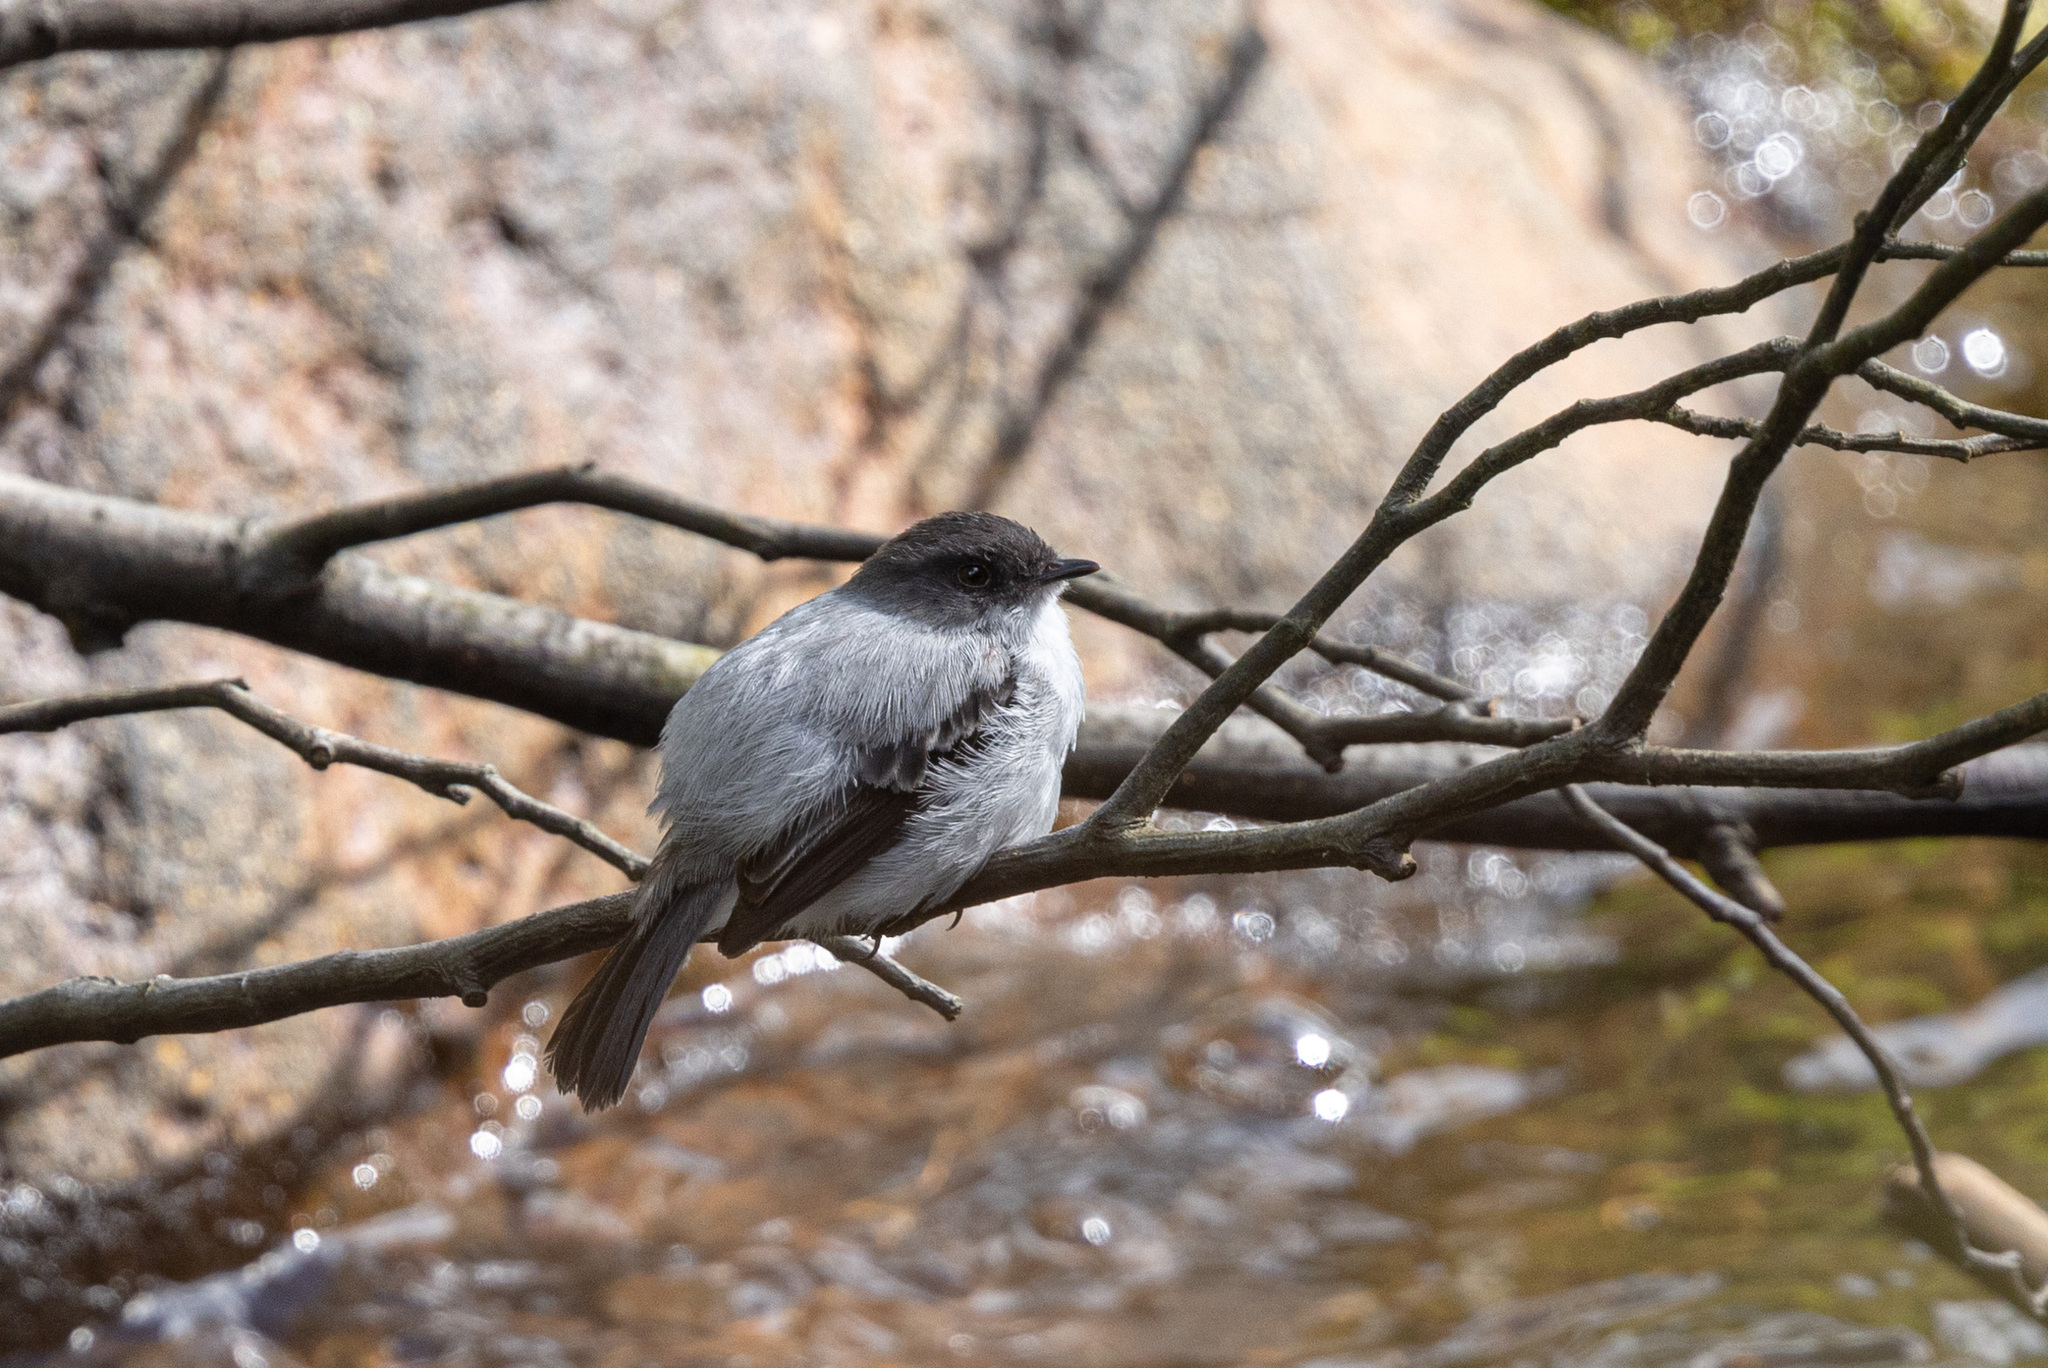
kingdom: Animalia
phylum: Chordata
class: Aves
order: Passeriformes
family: Tyrannidae
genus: Serpophaga
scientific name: Serpophaga cinerea
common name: Torrent tyrannulet
